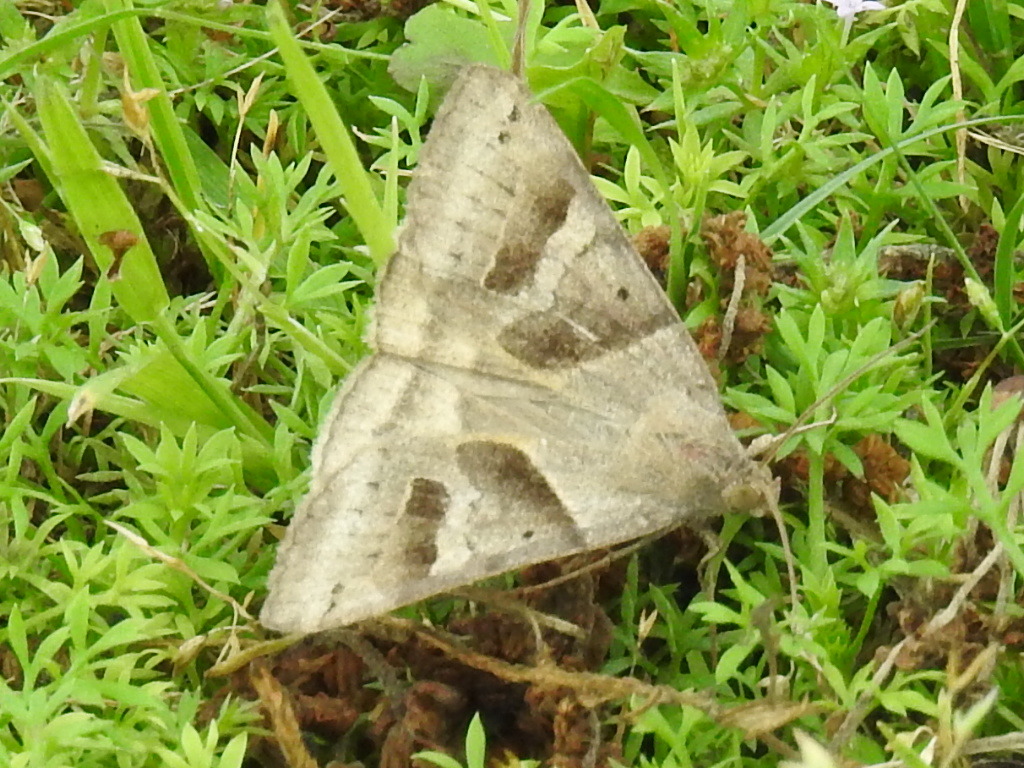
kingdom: Animalia
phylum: Arthropoda
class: Insecta
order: Lepidoptera
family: Erebidae
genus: Caenurgina
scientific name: Caenurgina erechtea
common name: Forage looper moth
